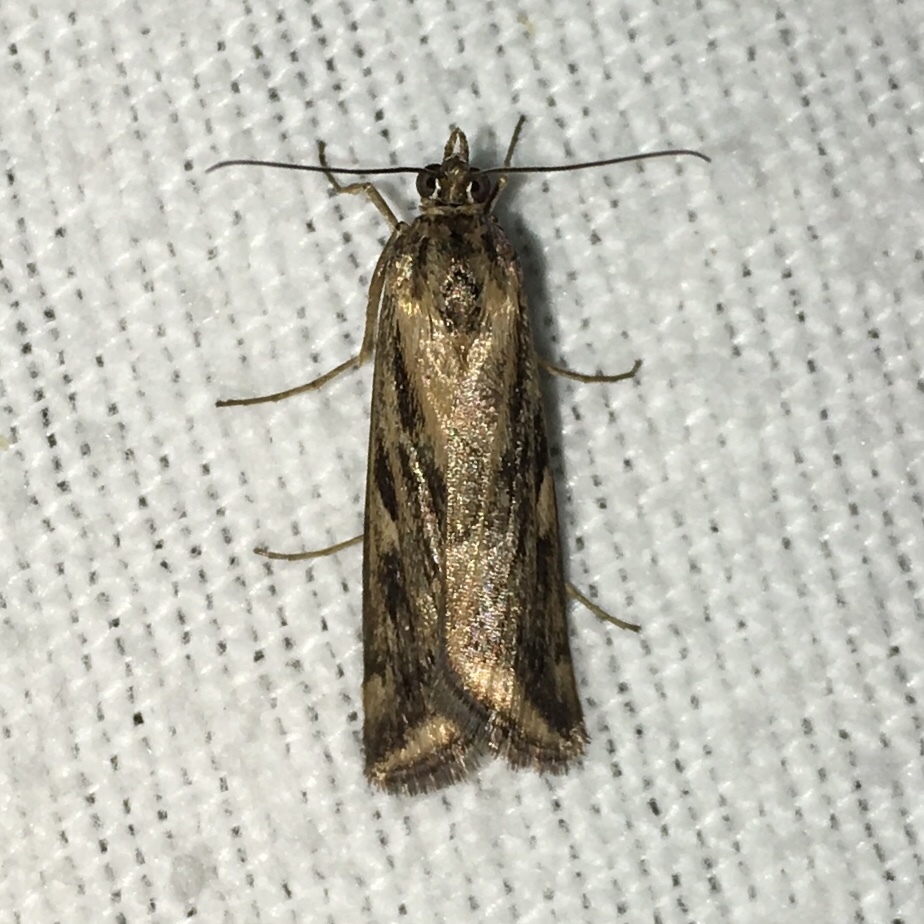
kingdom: Animalia
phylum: Arthropoda
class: Insecta
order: Lepidoptera
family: Crambidae
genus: Nomophila
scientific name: Nomophila nearctica
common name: American rush veneer
